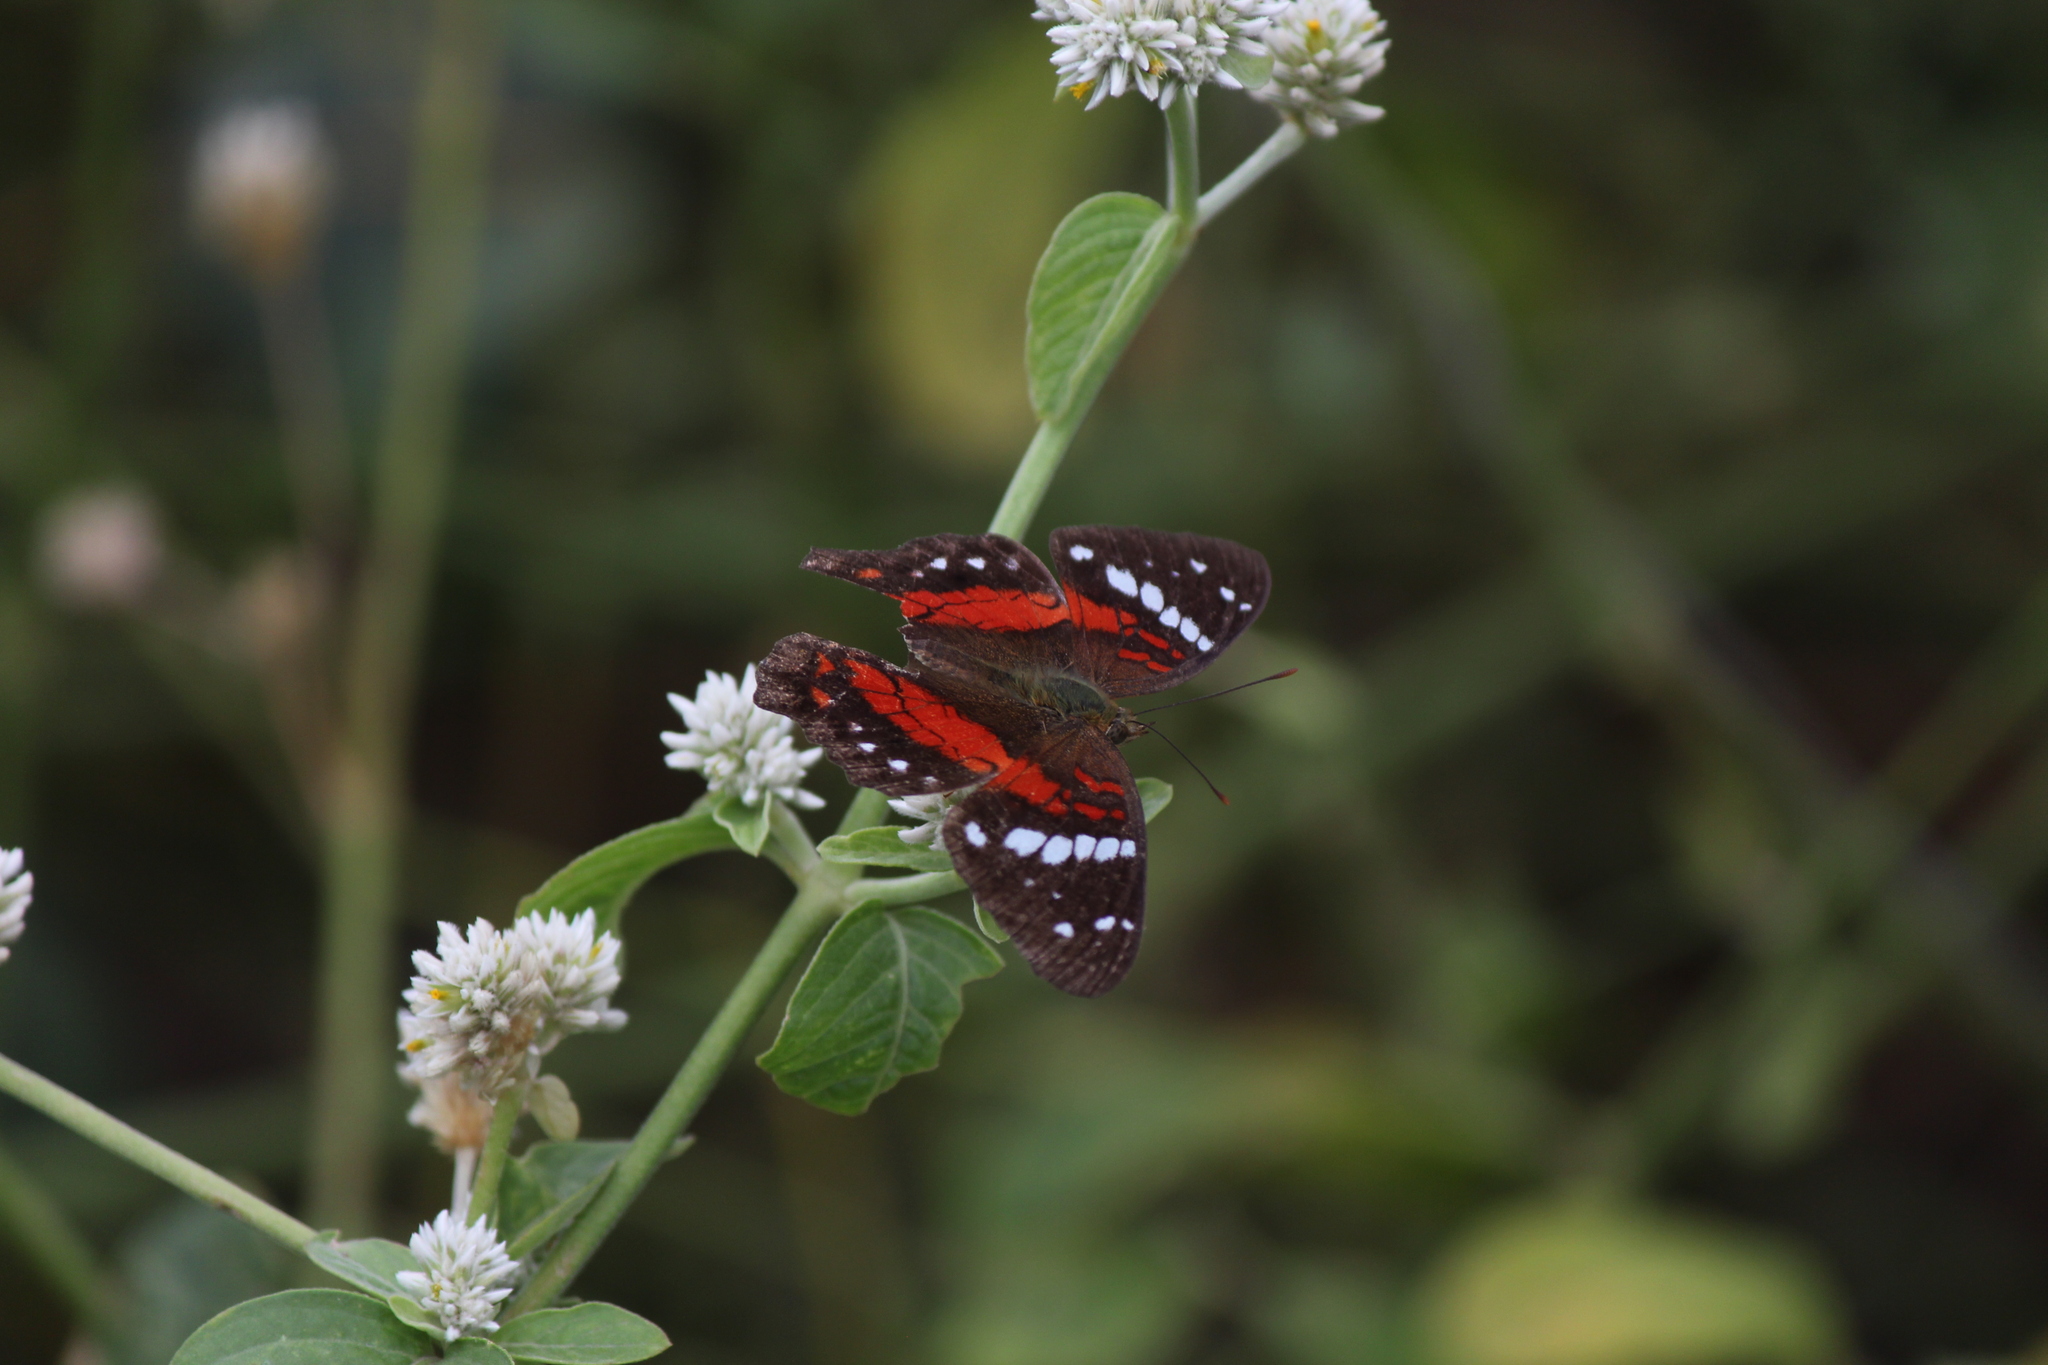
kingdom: Animalia
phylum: Arthropoda
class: Insecta
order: Lepidoptera
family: Nymphalidae
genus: Anartia
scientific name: Anartia amathea
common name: Red peacock
